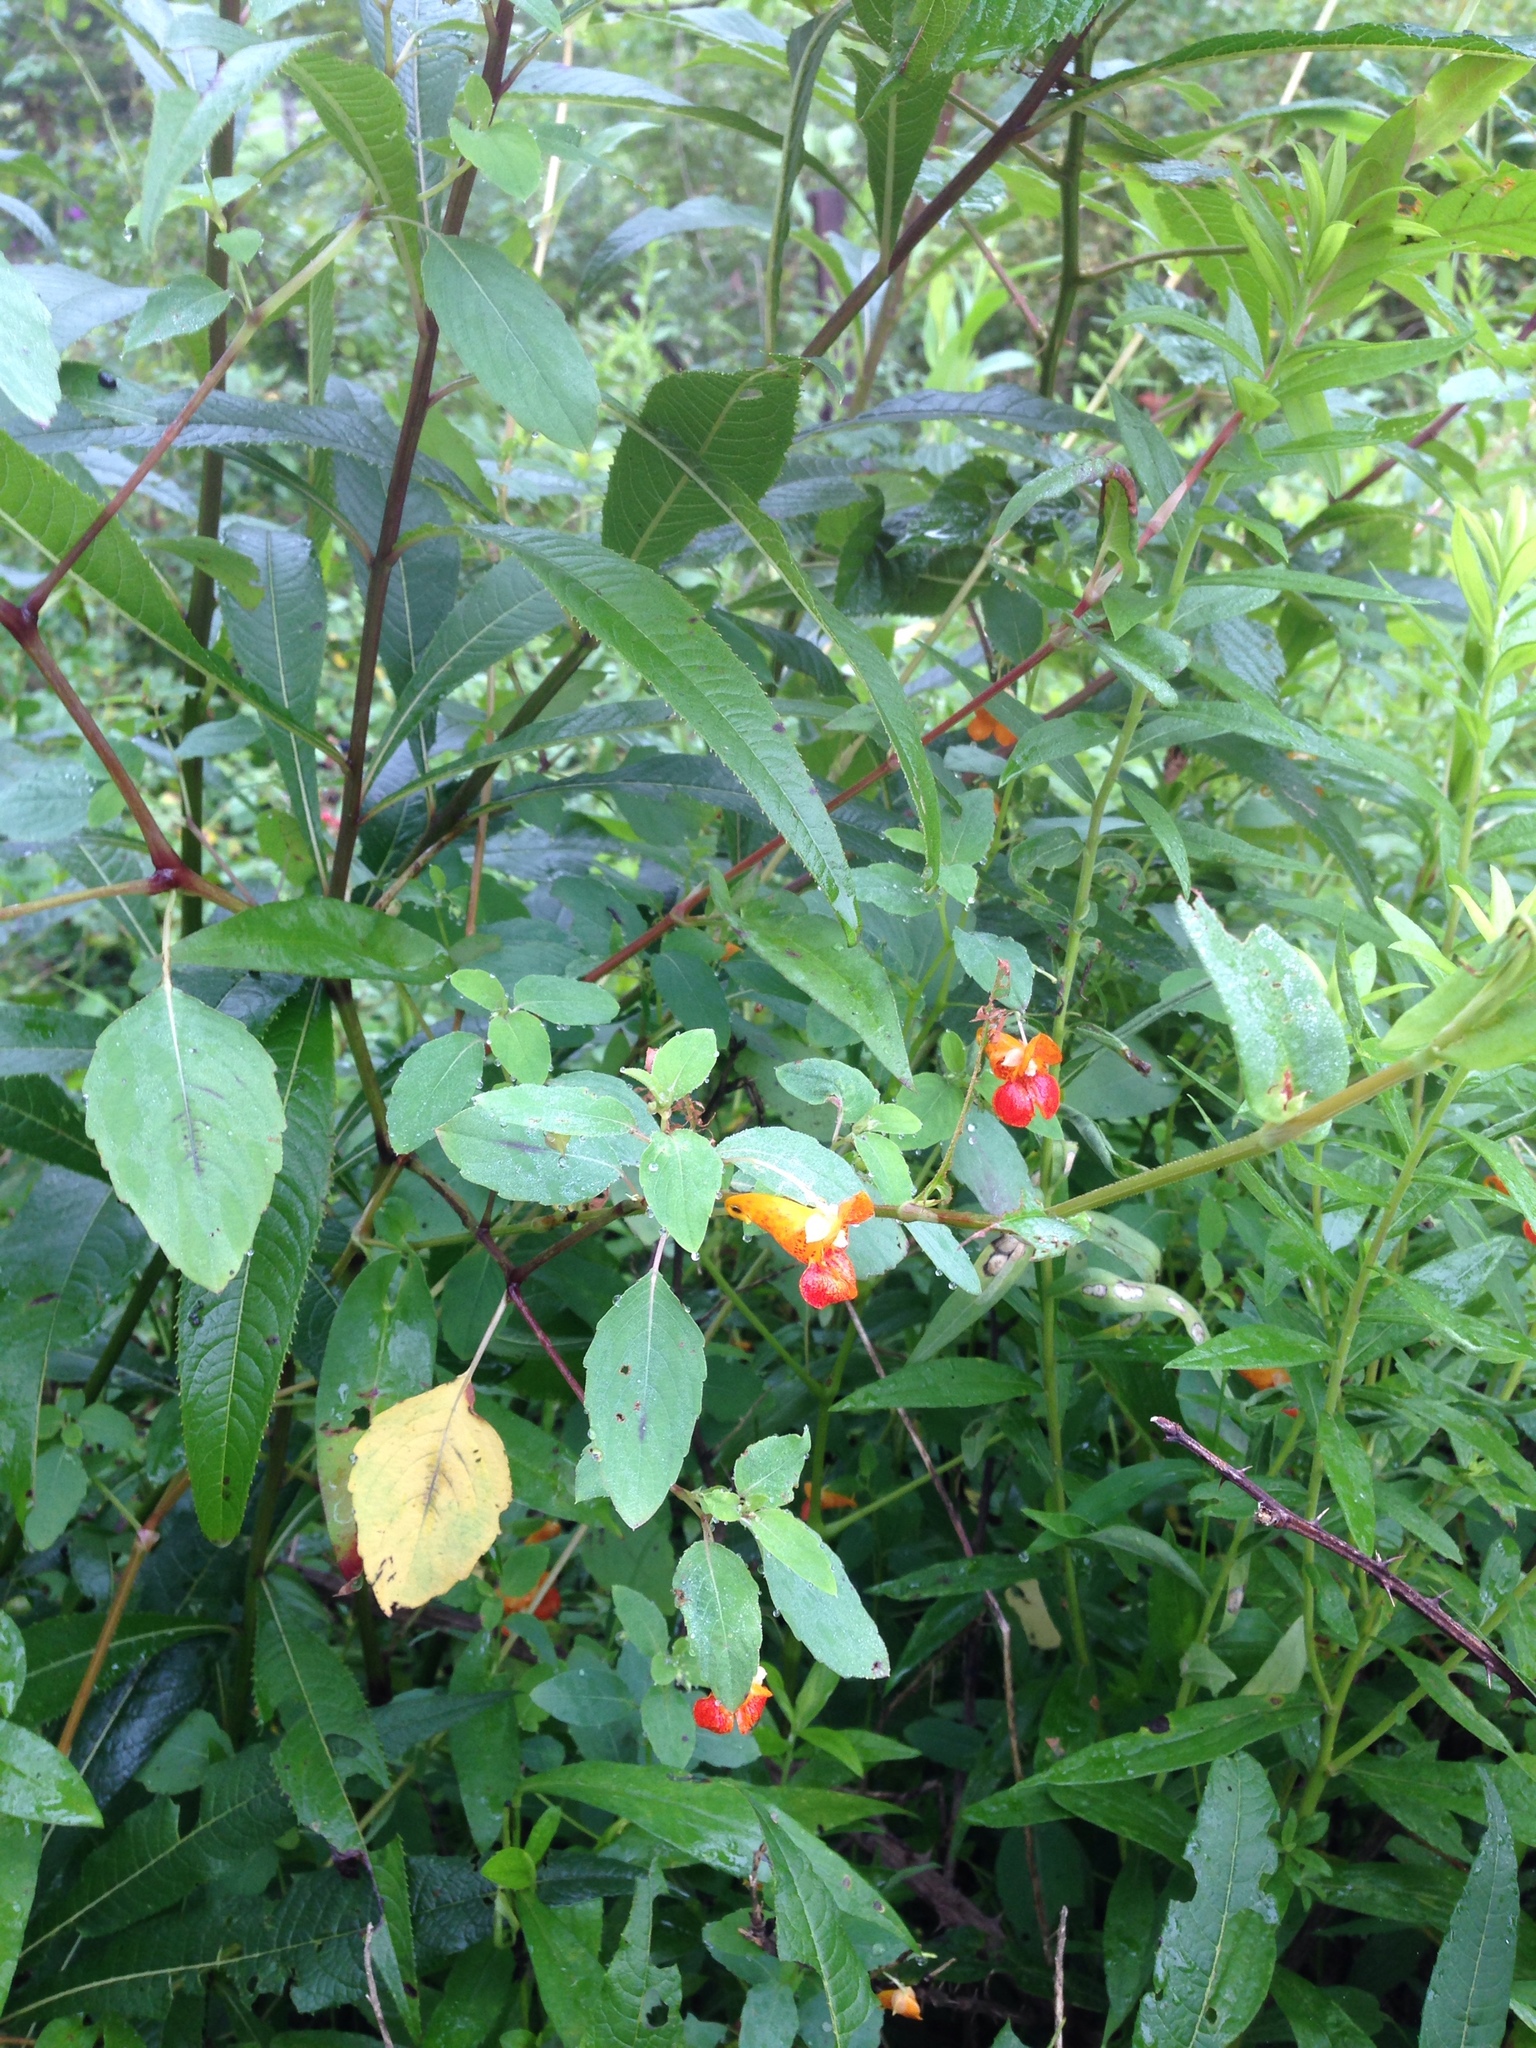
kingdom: Plantae
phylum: Tracheophyta
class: Magnoliopsida
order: Ericales
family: Balsaminaceae
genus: Impatiens
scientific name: Impatiens capensis
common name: Orange balsam
